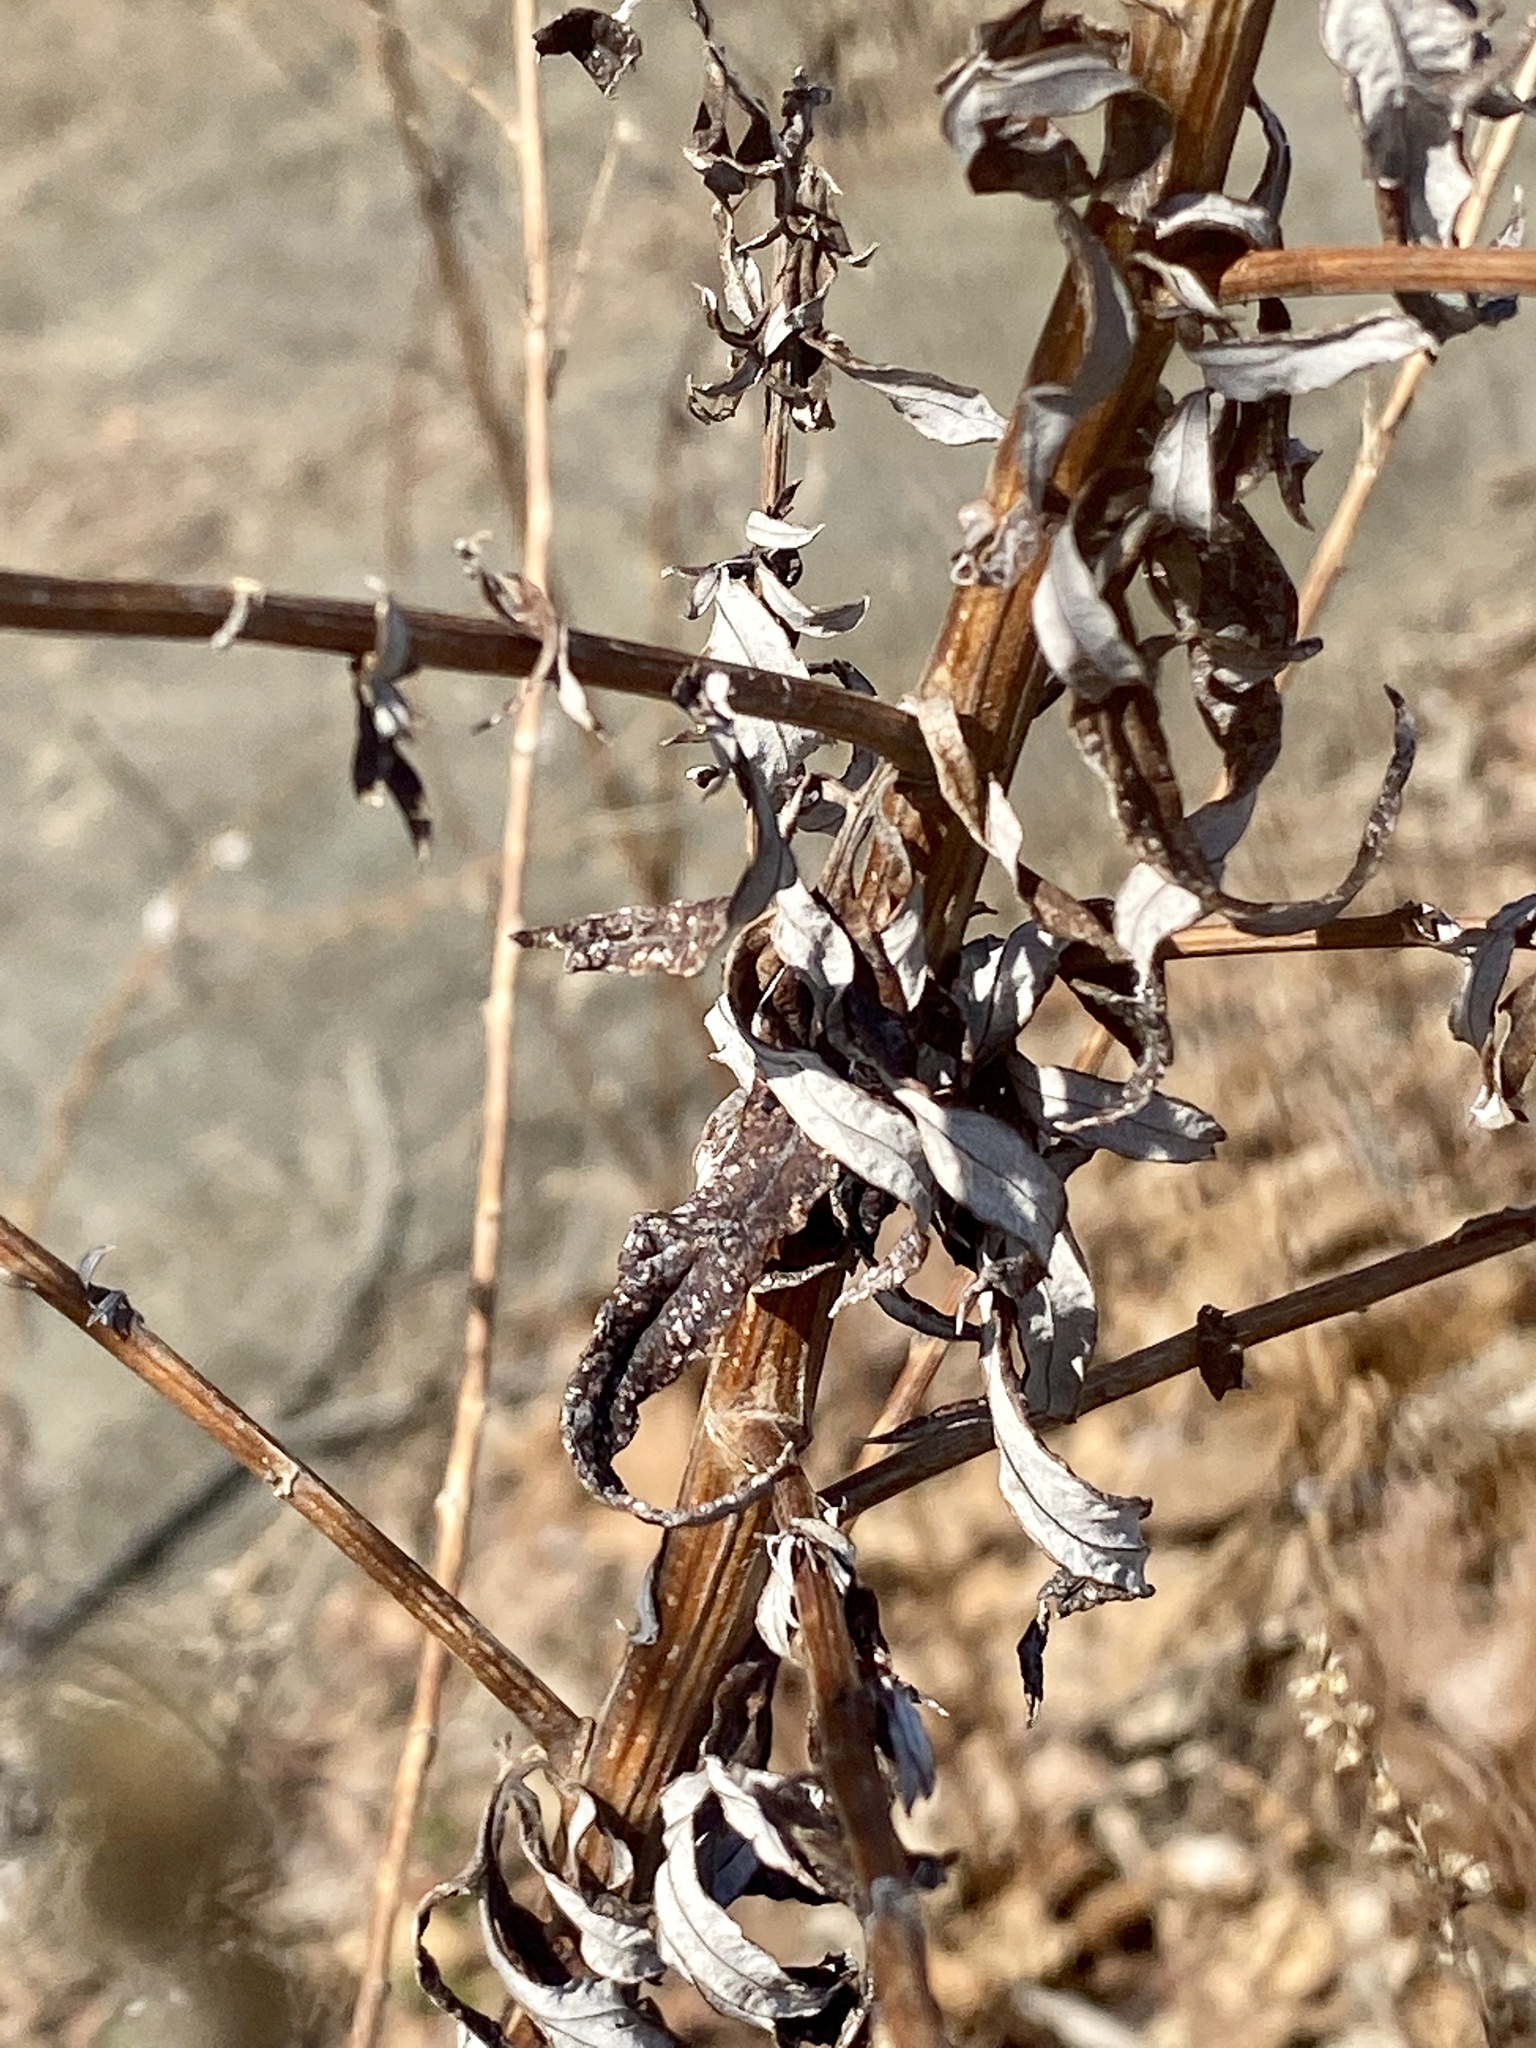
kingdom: Plantae
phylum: Tracheophyta
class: Magnoliopsida
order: Asterales
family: Asteraceae
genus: Artemisia
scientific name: Artemisia vulgaris
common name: Mugwort
